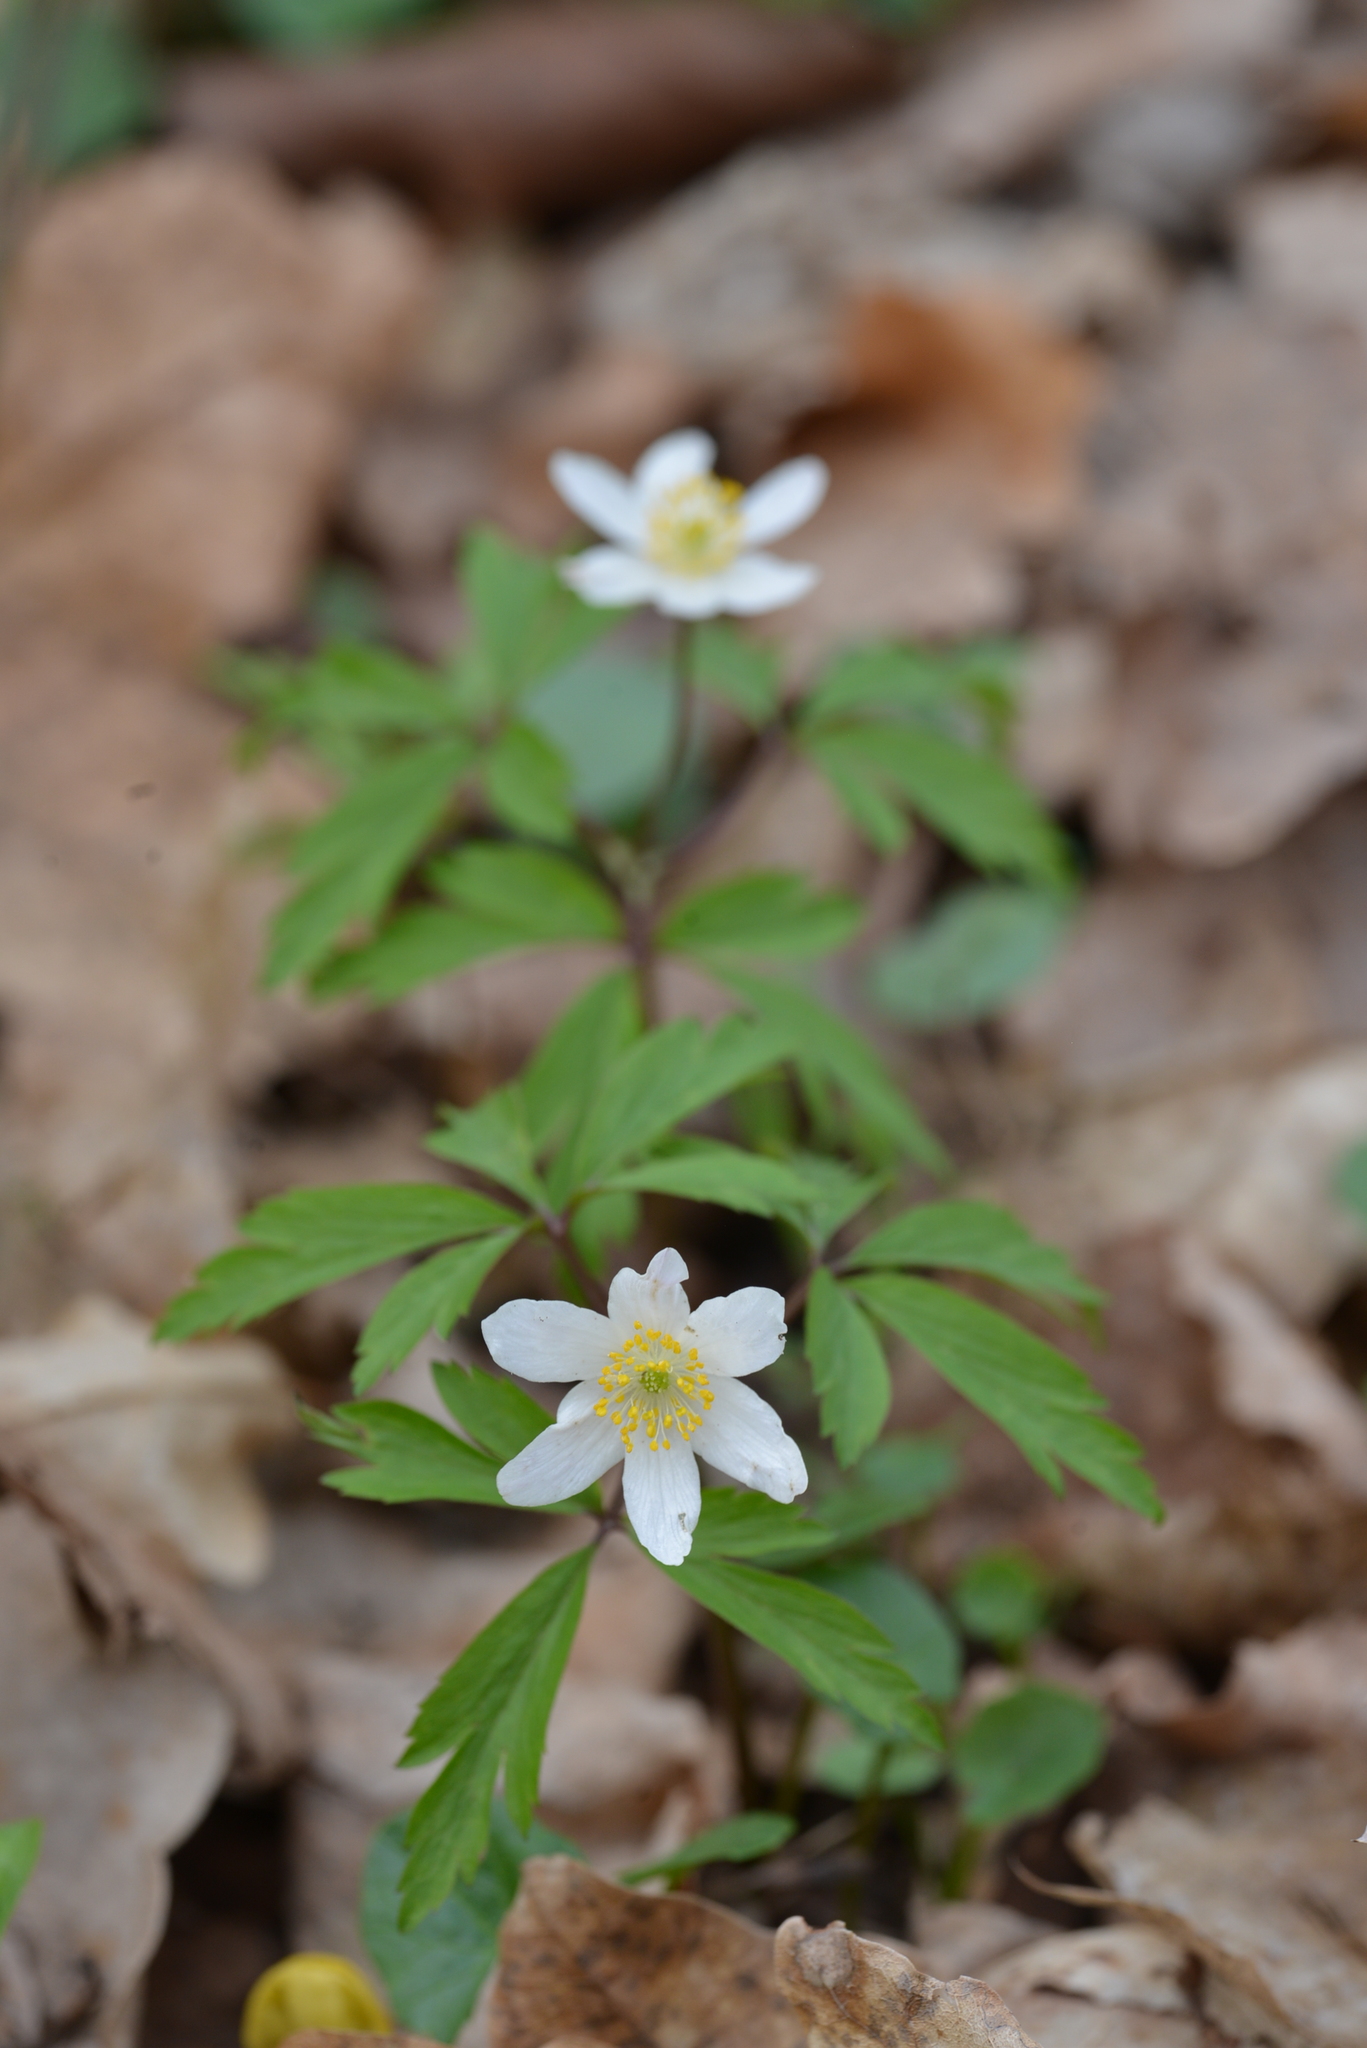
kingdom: Plantae
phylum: Tracheophyta
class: Magnoliopsida
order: Ranunculales
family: Ranunculaceae
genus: Anemone
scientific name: Anemone nemorosa
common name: Wood anemone
